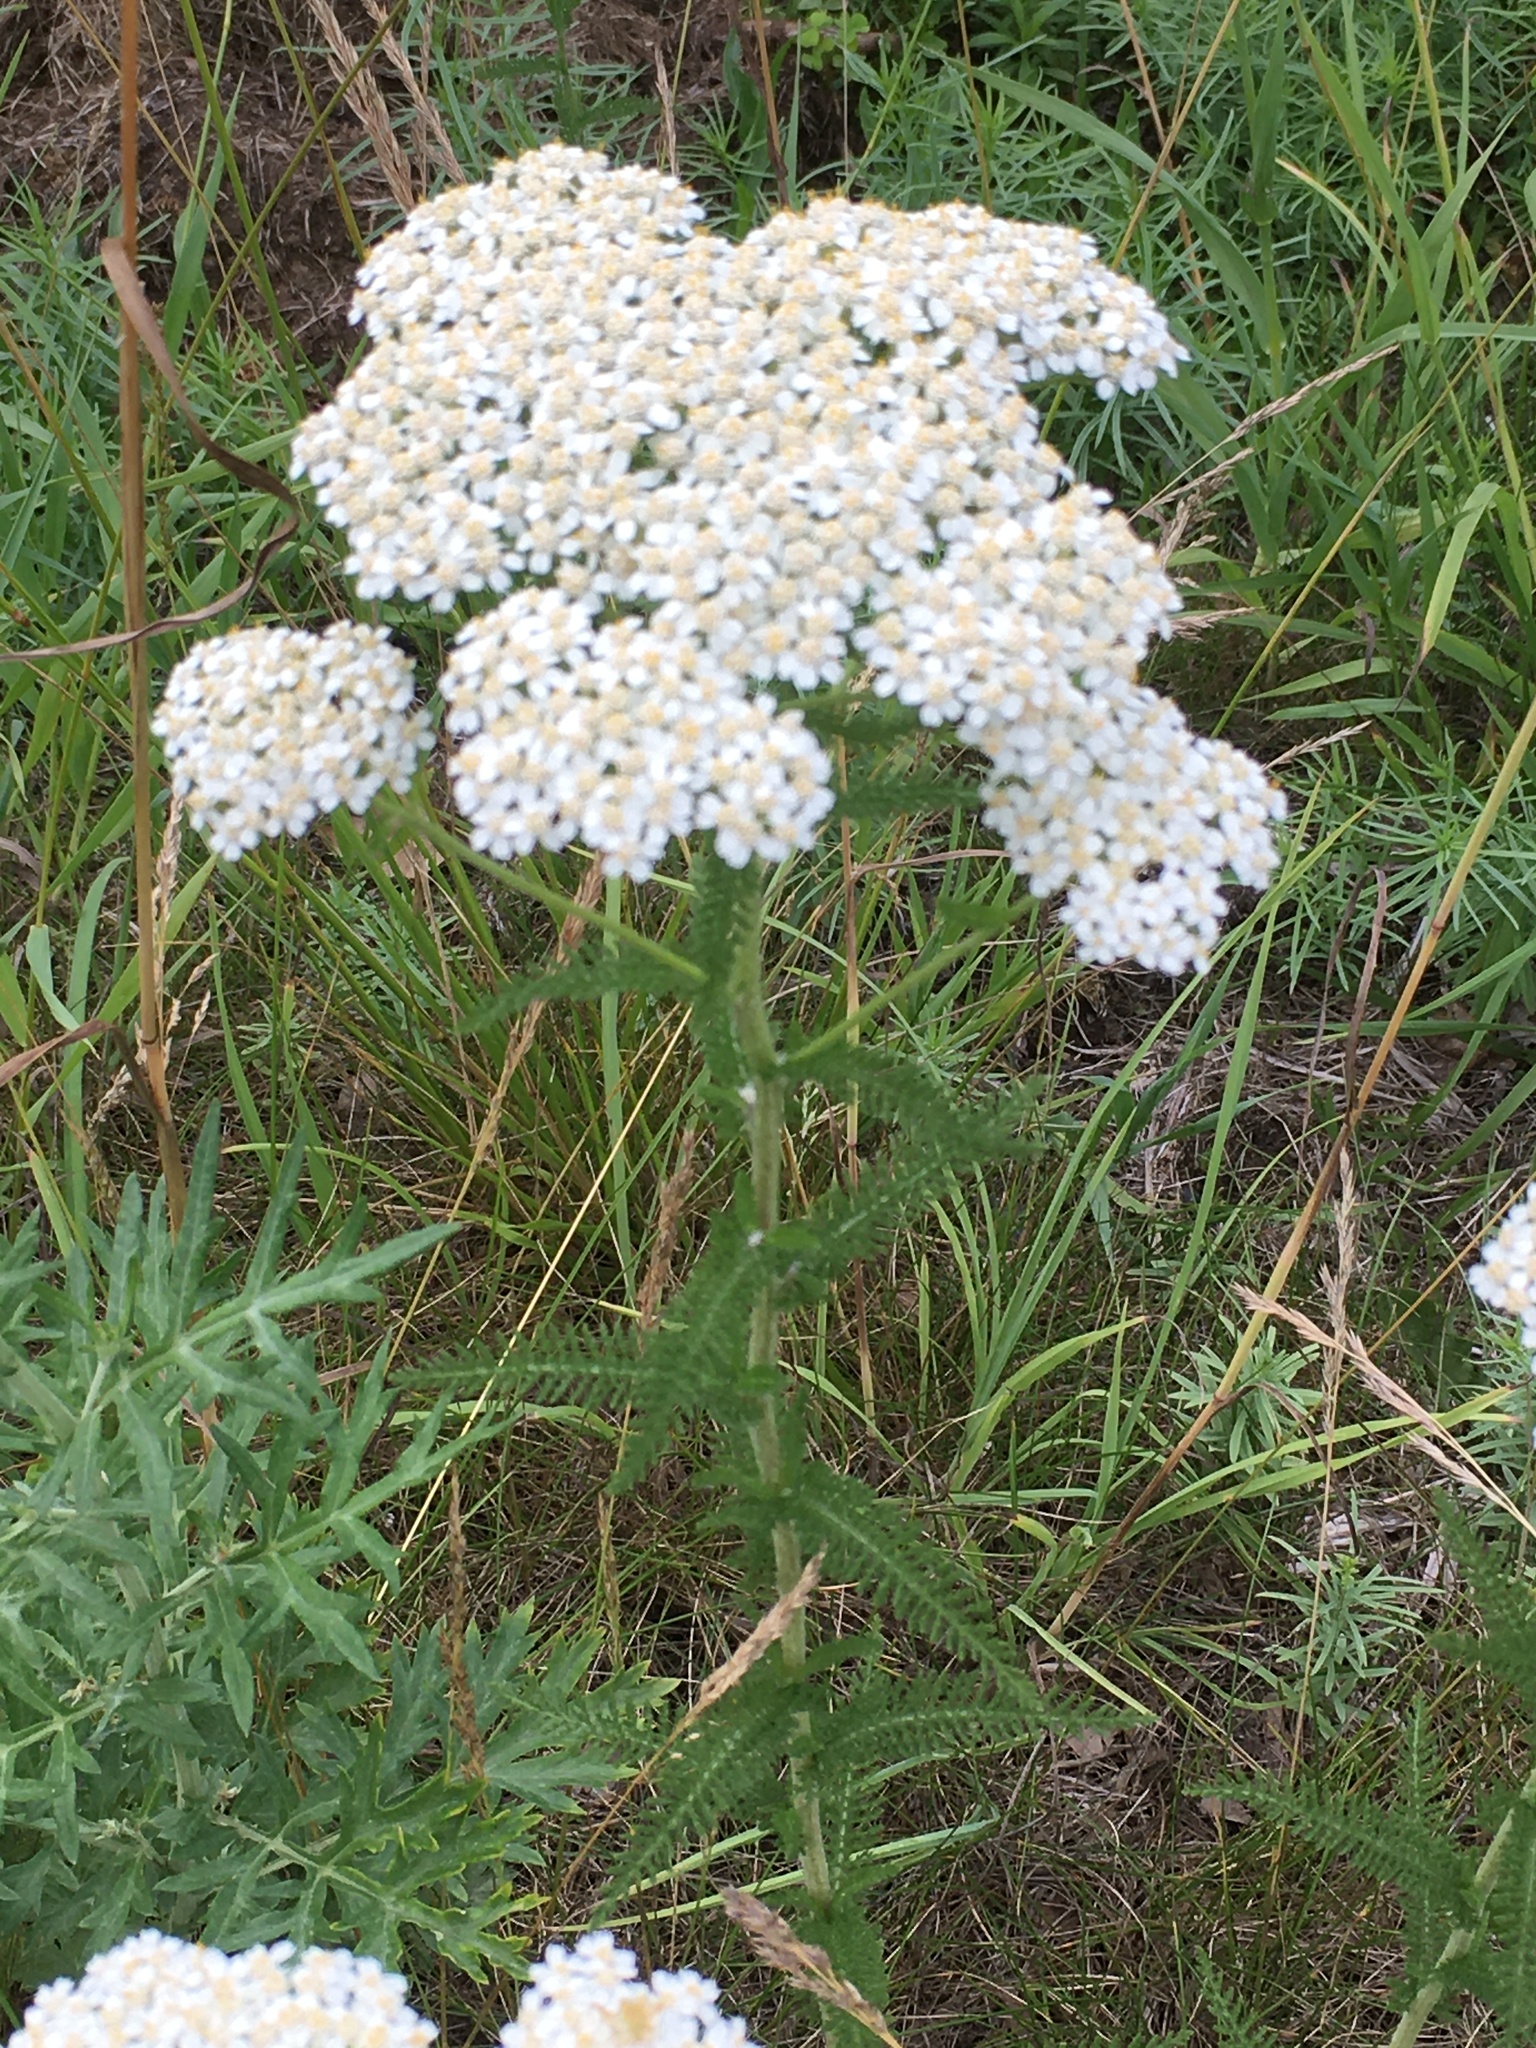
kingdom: Plantae
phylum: Tracheophyta
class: Magnoliopsida
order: Asterales
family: Asteraceae
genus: Achillea
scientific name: Achillea millefolium
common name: Yarrow
